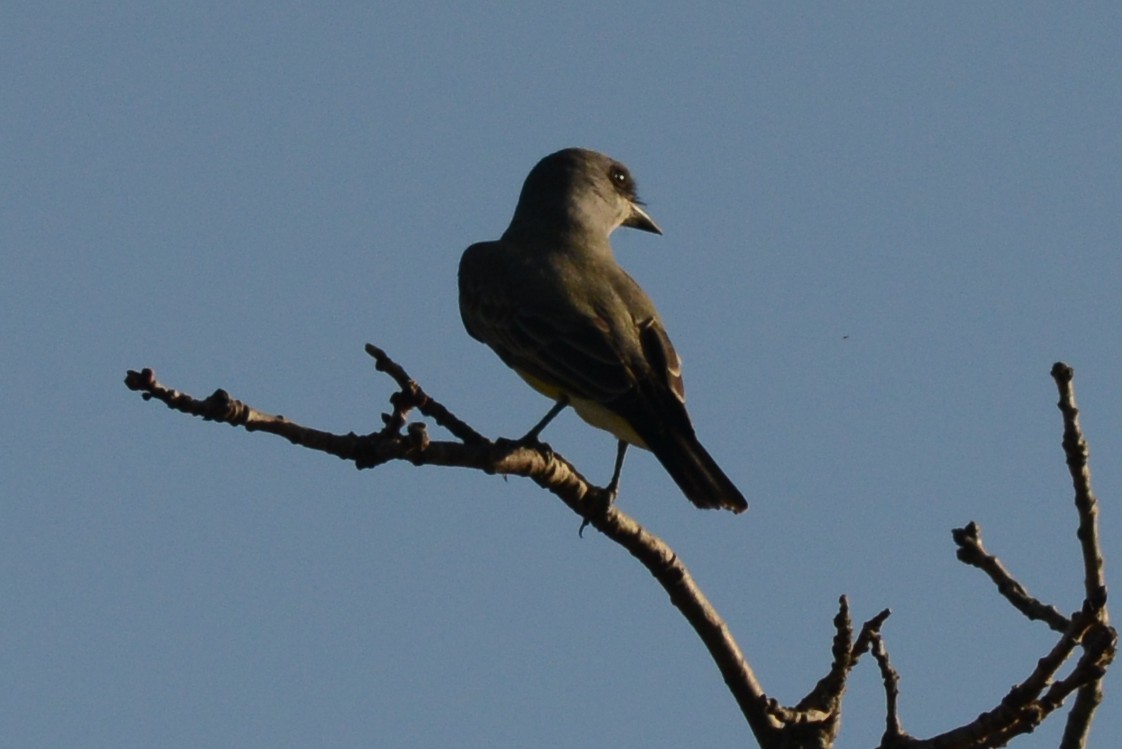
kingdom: Animalia
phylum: Chordata
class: Aves
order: Passeriformes
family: Tyrannidae
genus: Tyrannus
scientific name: Tyrannus vociferans
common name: Cassin's kingbird
